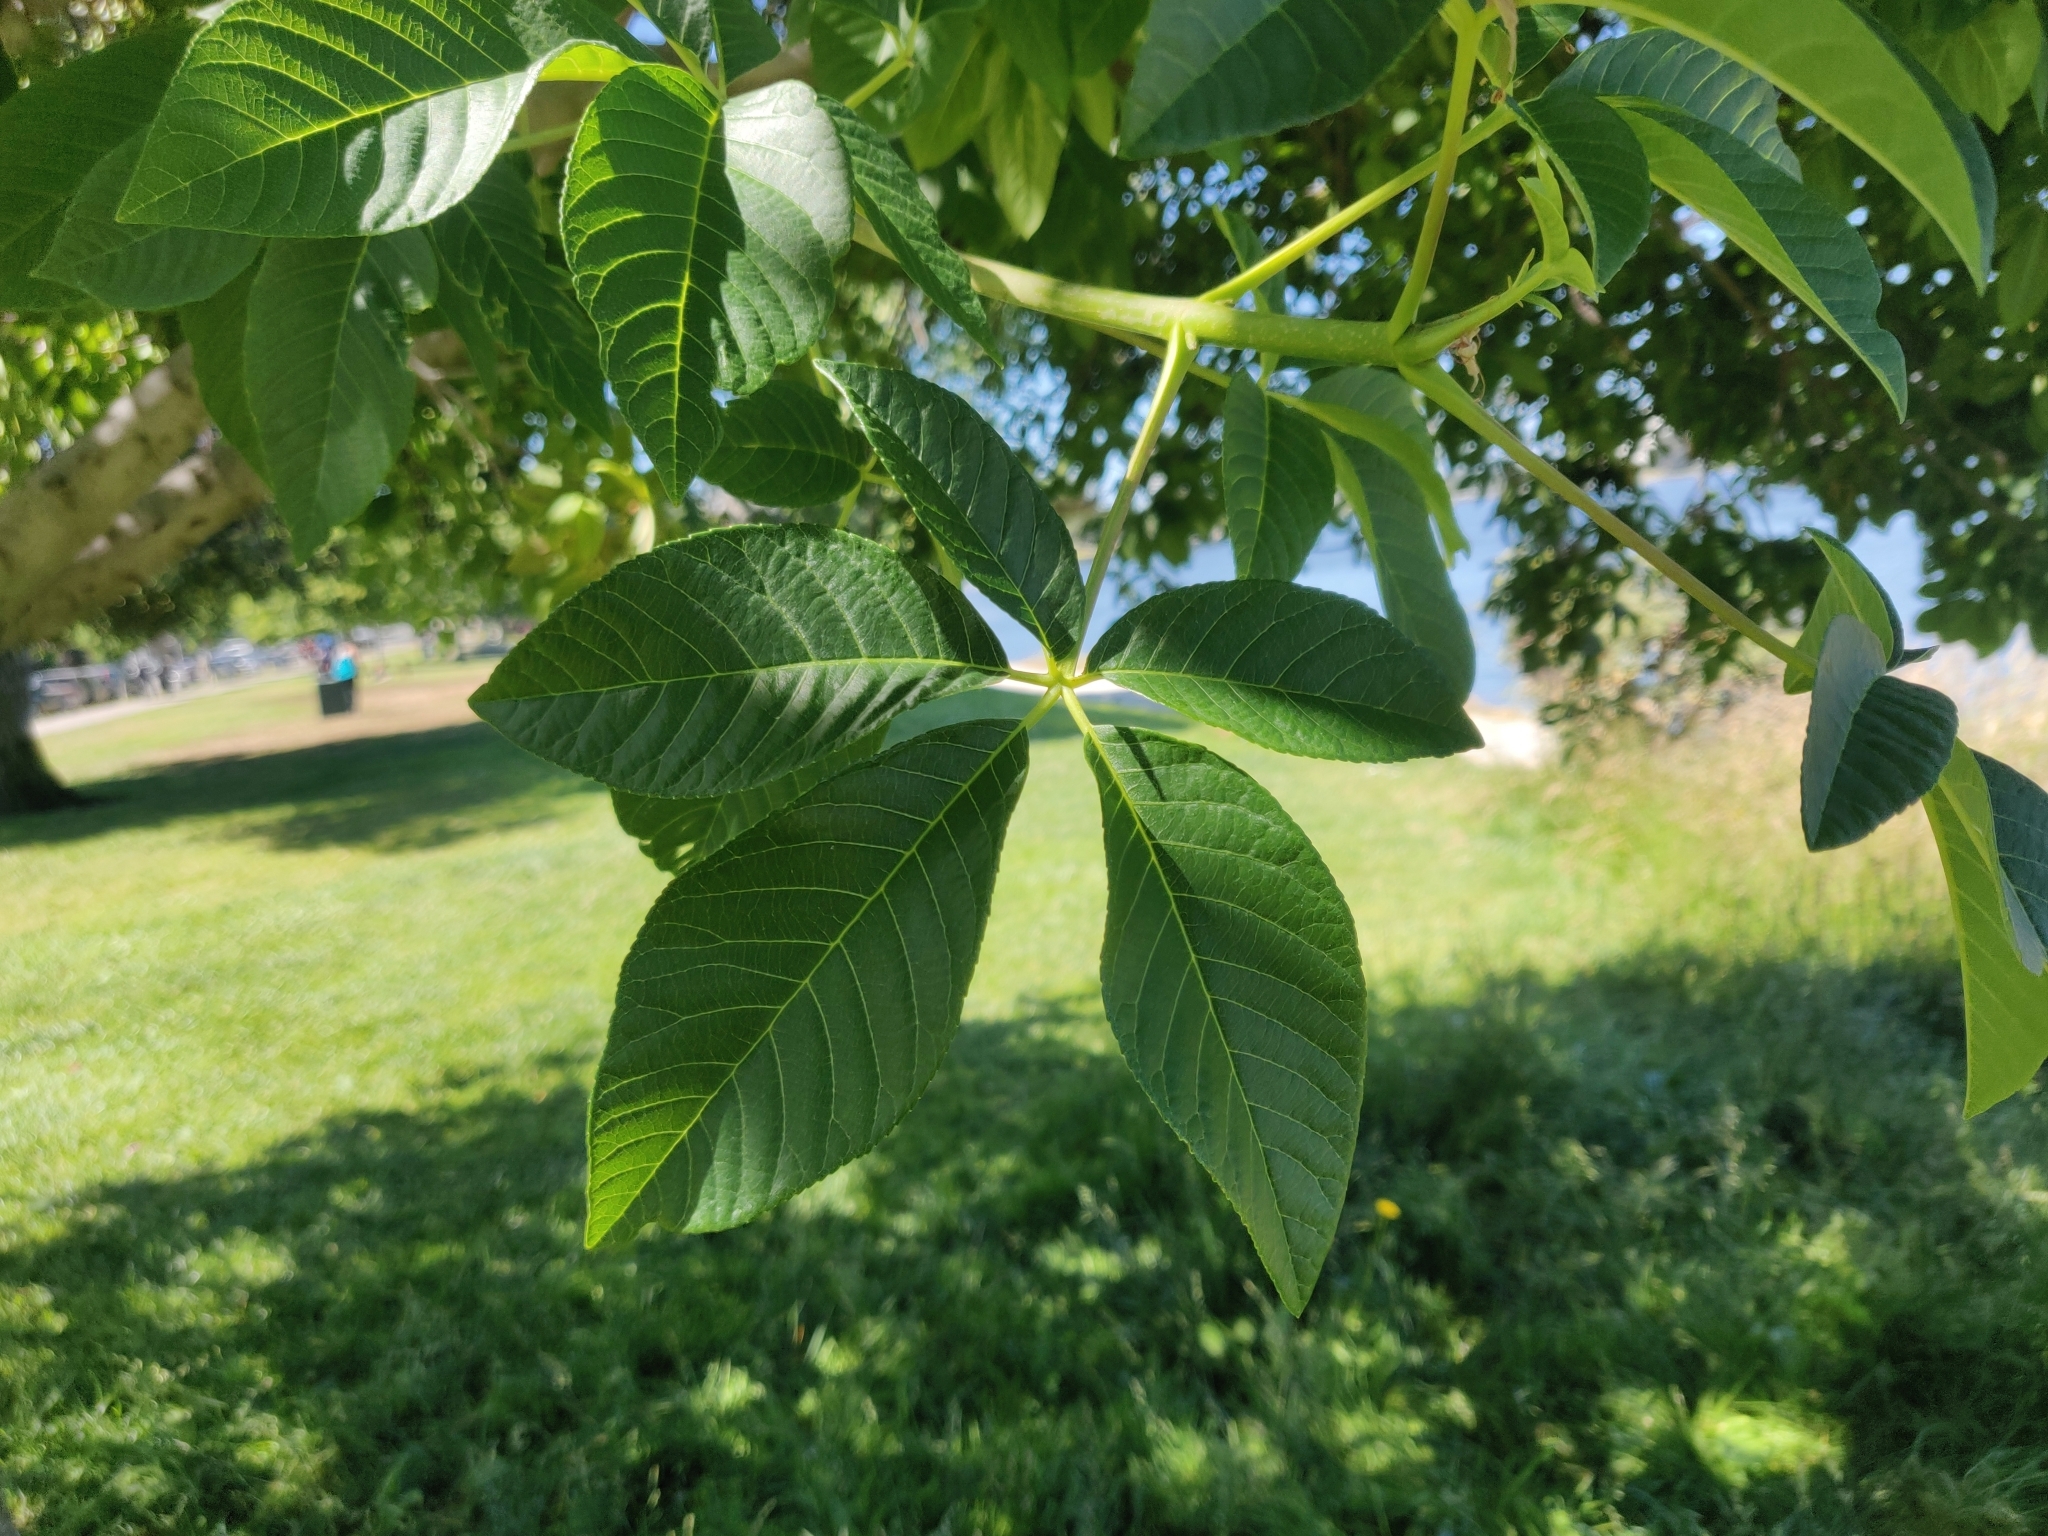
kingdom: Plantae
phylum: Tracheophyta
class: Magnoliopsida
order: Sapindales
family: Sapindaceae
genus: Aesculus
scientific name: Aesculus californica
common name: California buckeye
